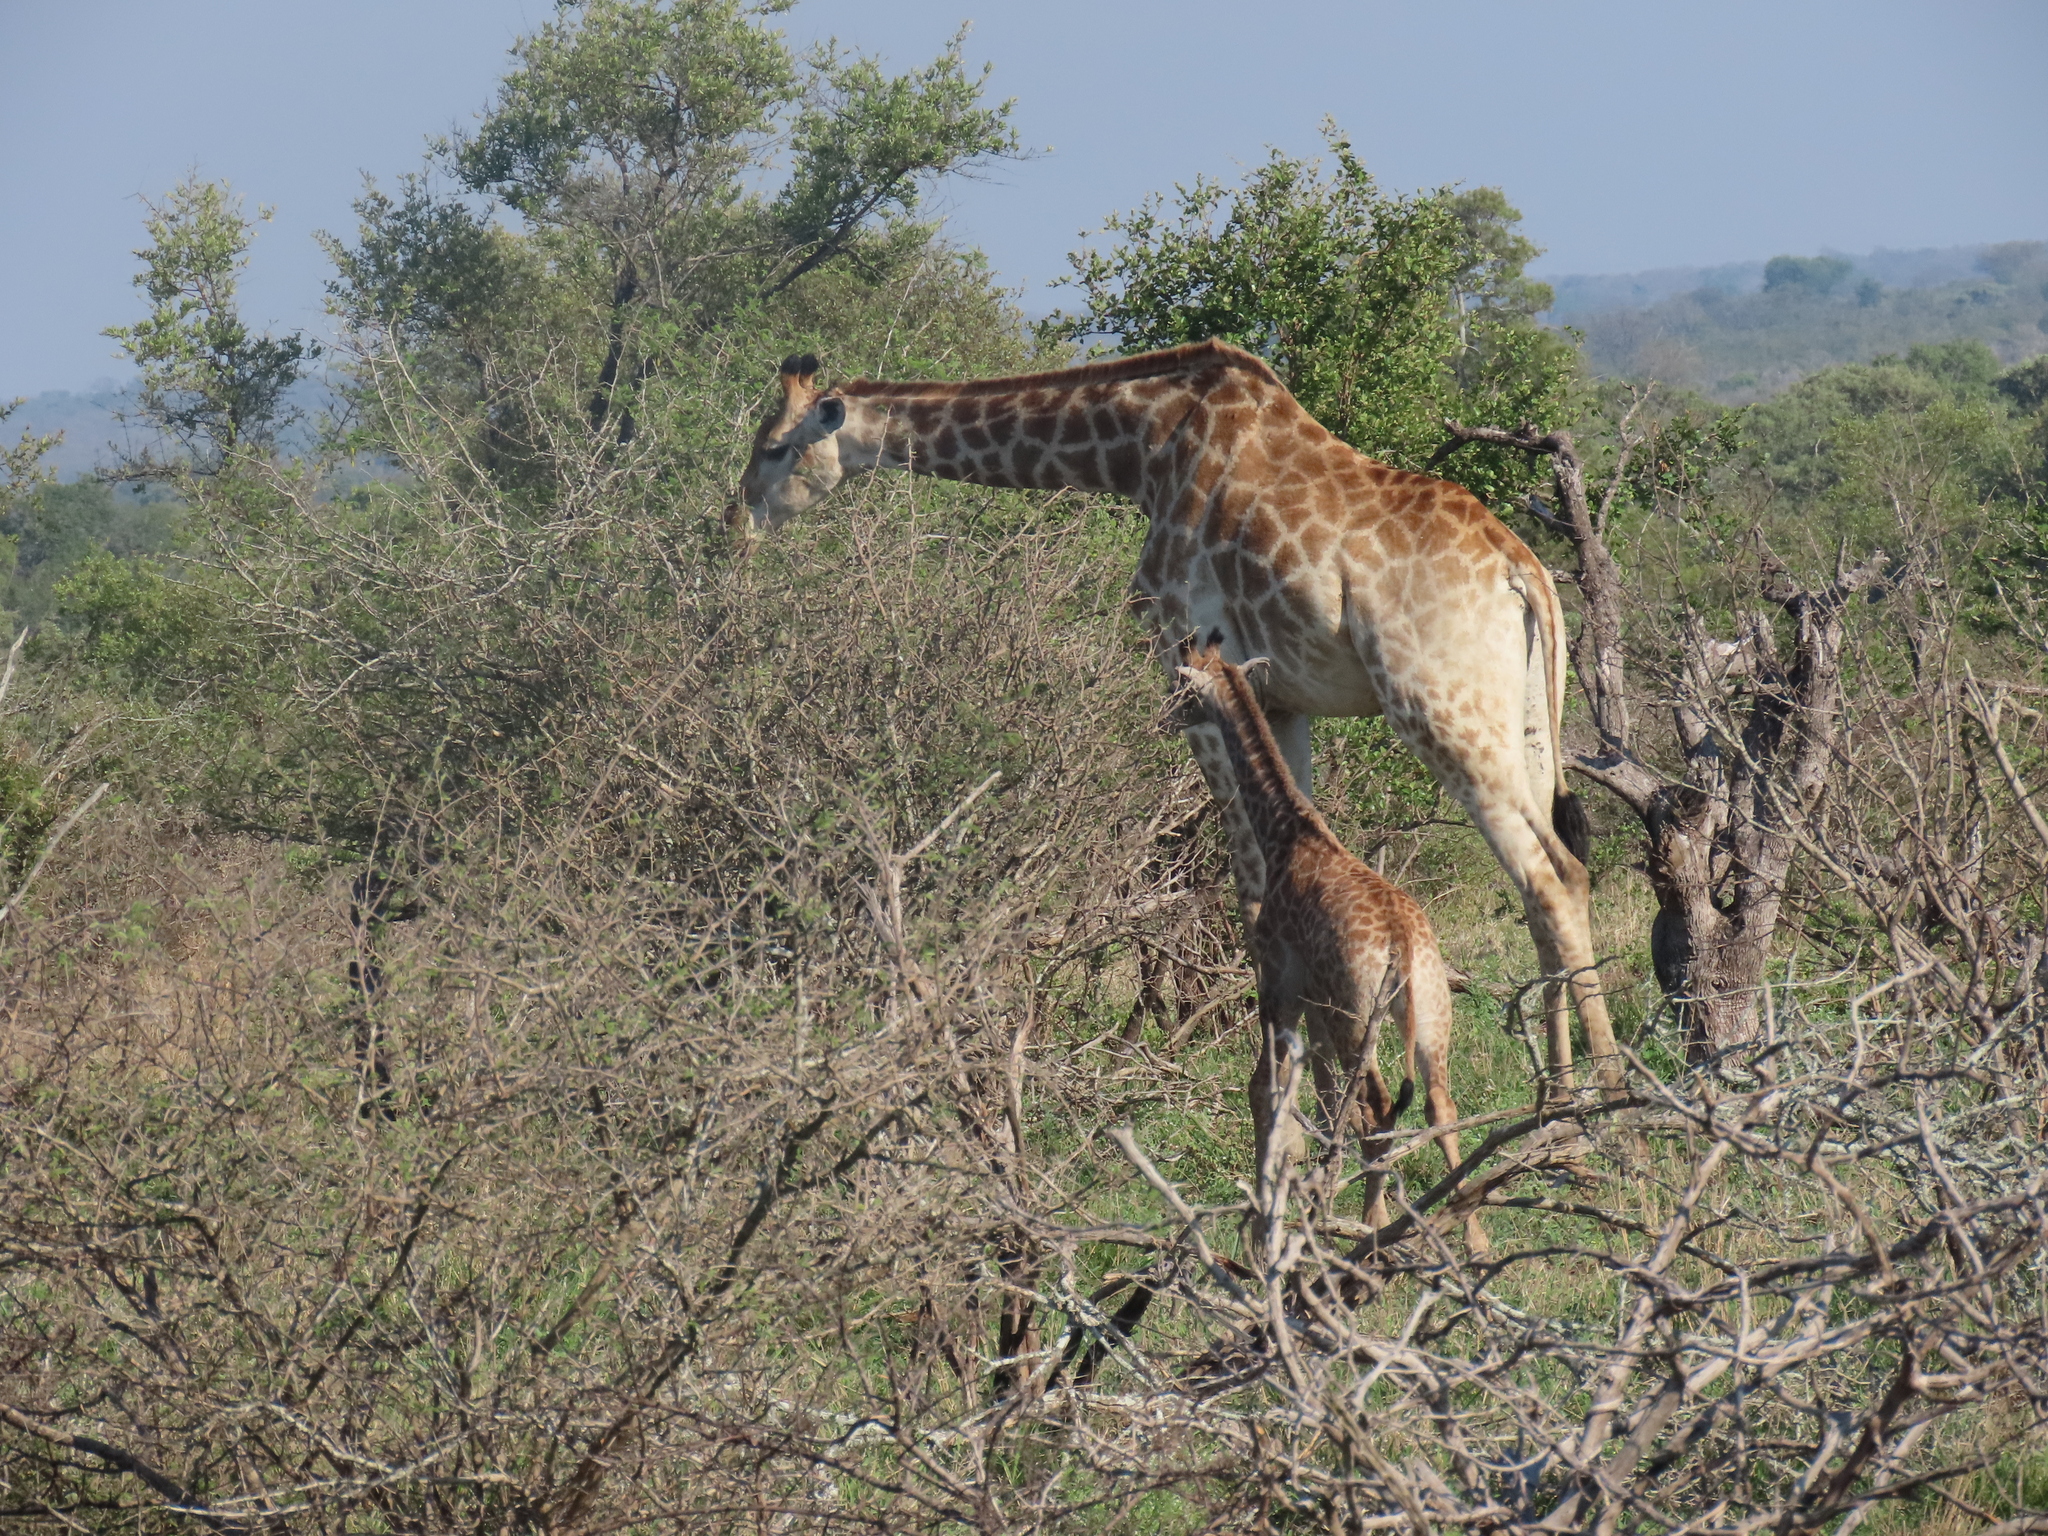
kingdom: Animalia
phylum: Chordata
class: Mammalia
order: Artiodactyla
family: Giraffidae
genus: Giraffa
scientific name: Giraffa giraffa
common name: Southern giraffe
